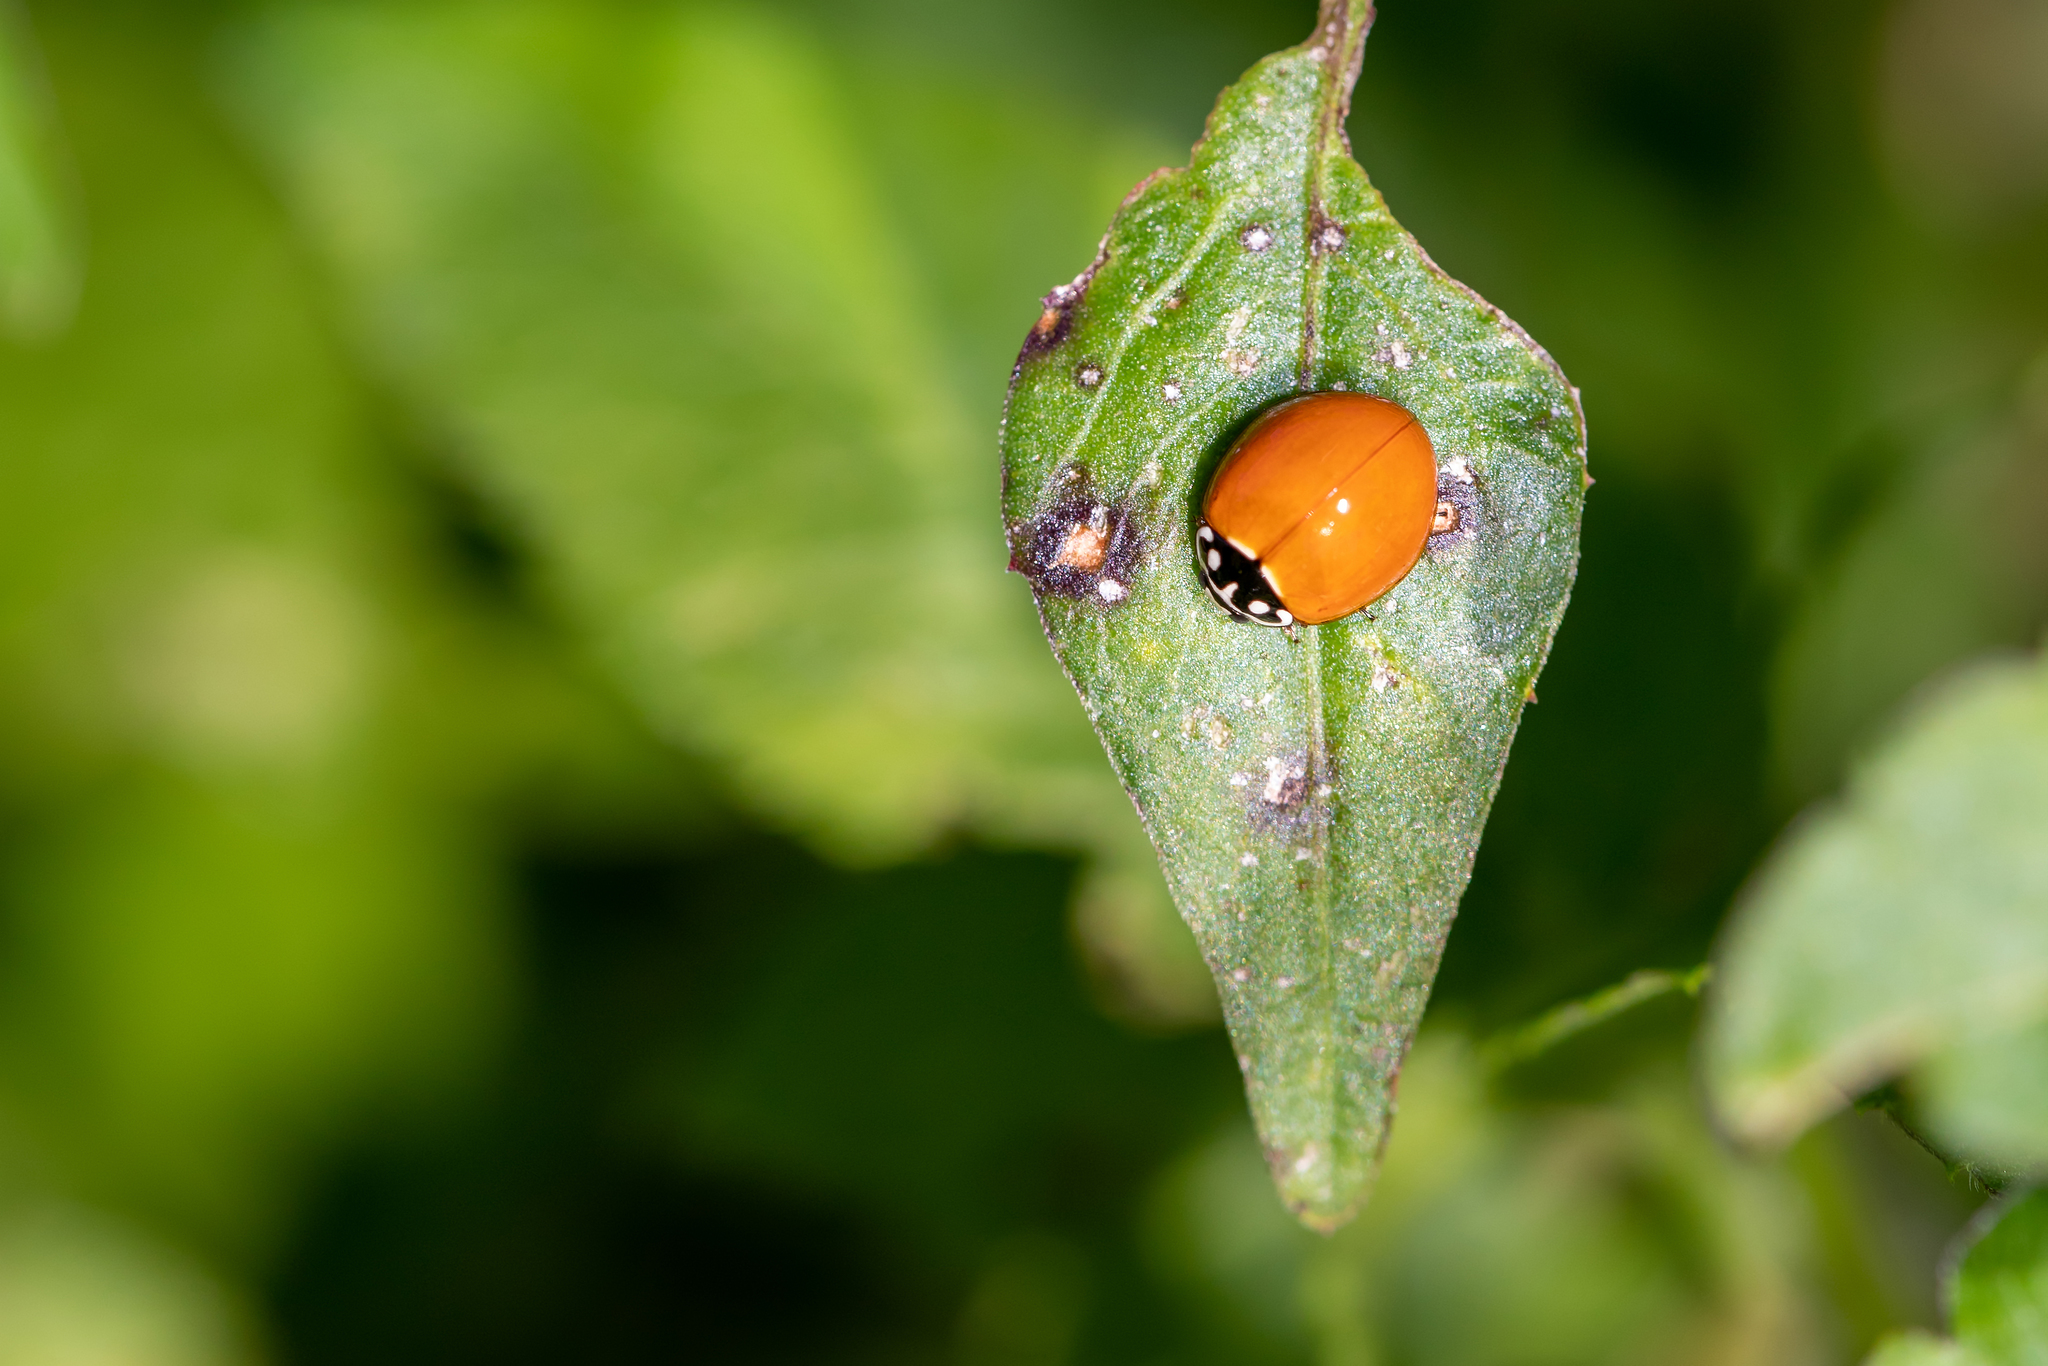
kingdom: Animalia
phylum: Arthropoda
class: Insecta
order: Coleoptera
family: Coccinellidae
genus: Cycloneda
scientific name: Cycloneda sanguinea
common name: Ladybird beetle
